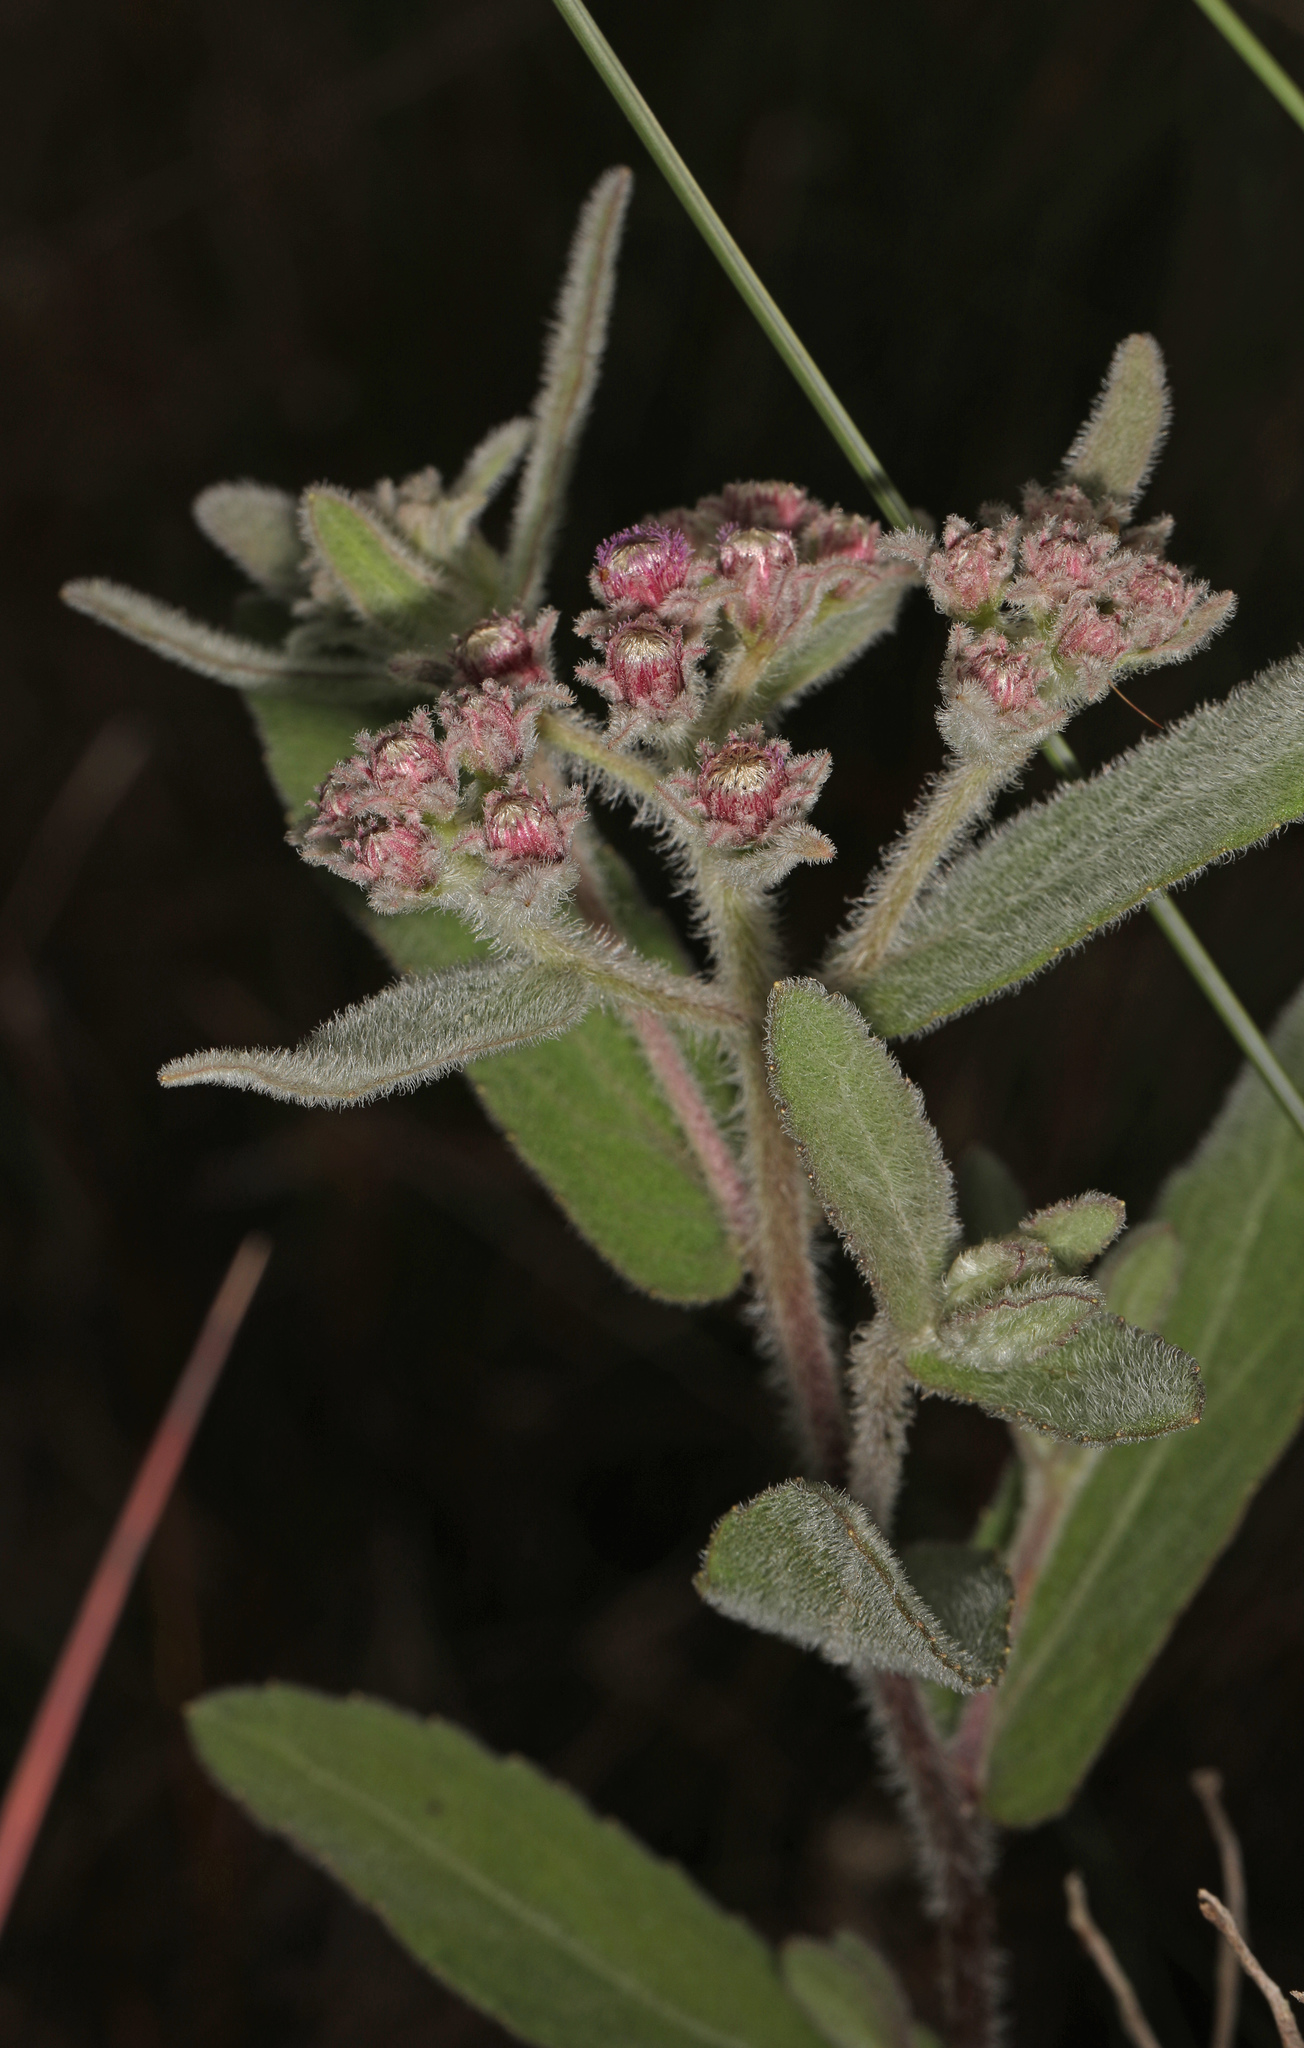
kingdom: Plantae
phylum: Tracheophyta
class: Magnoliopsida
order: Asterales
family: Asteraceae
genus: Pluchea
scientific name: Pluchea baccharis
